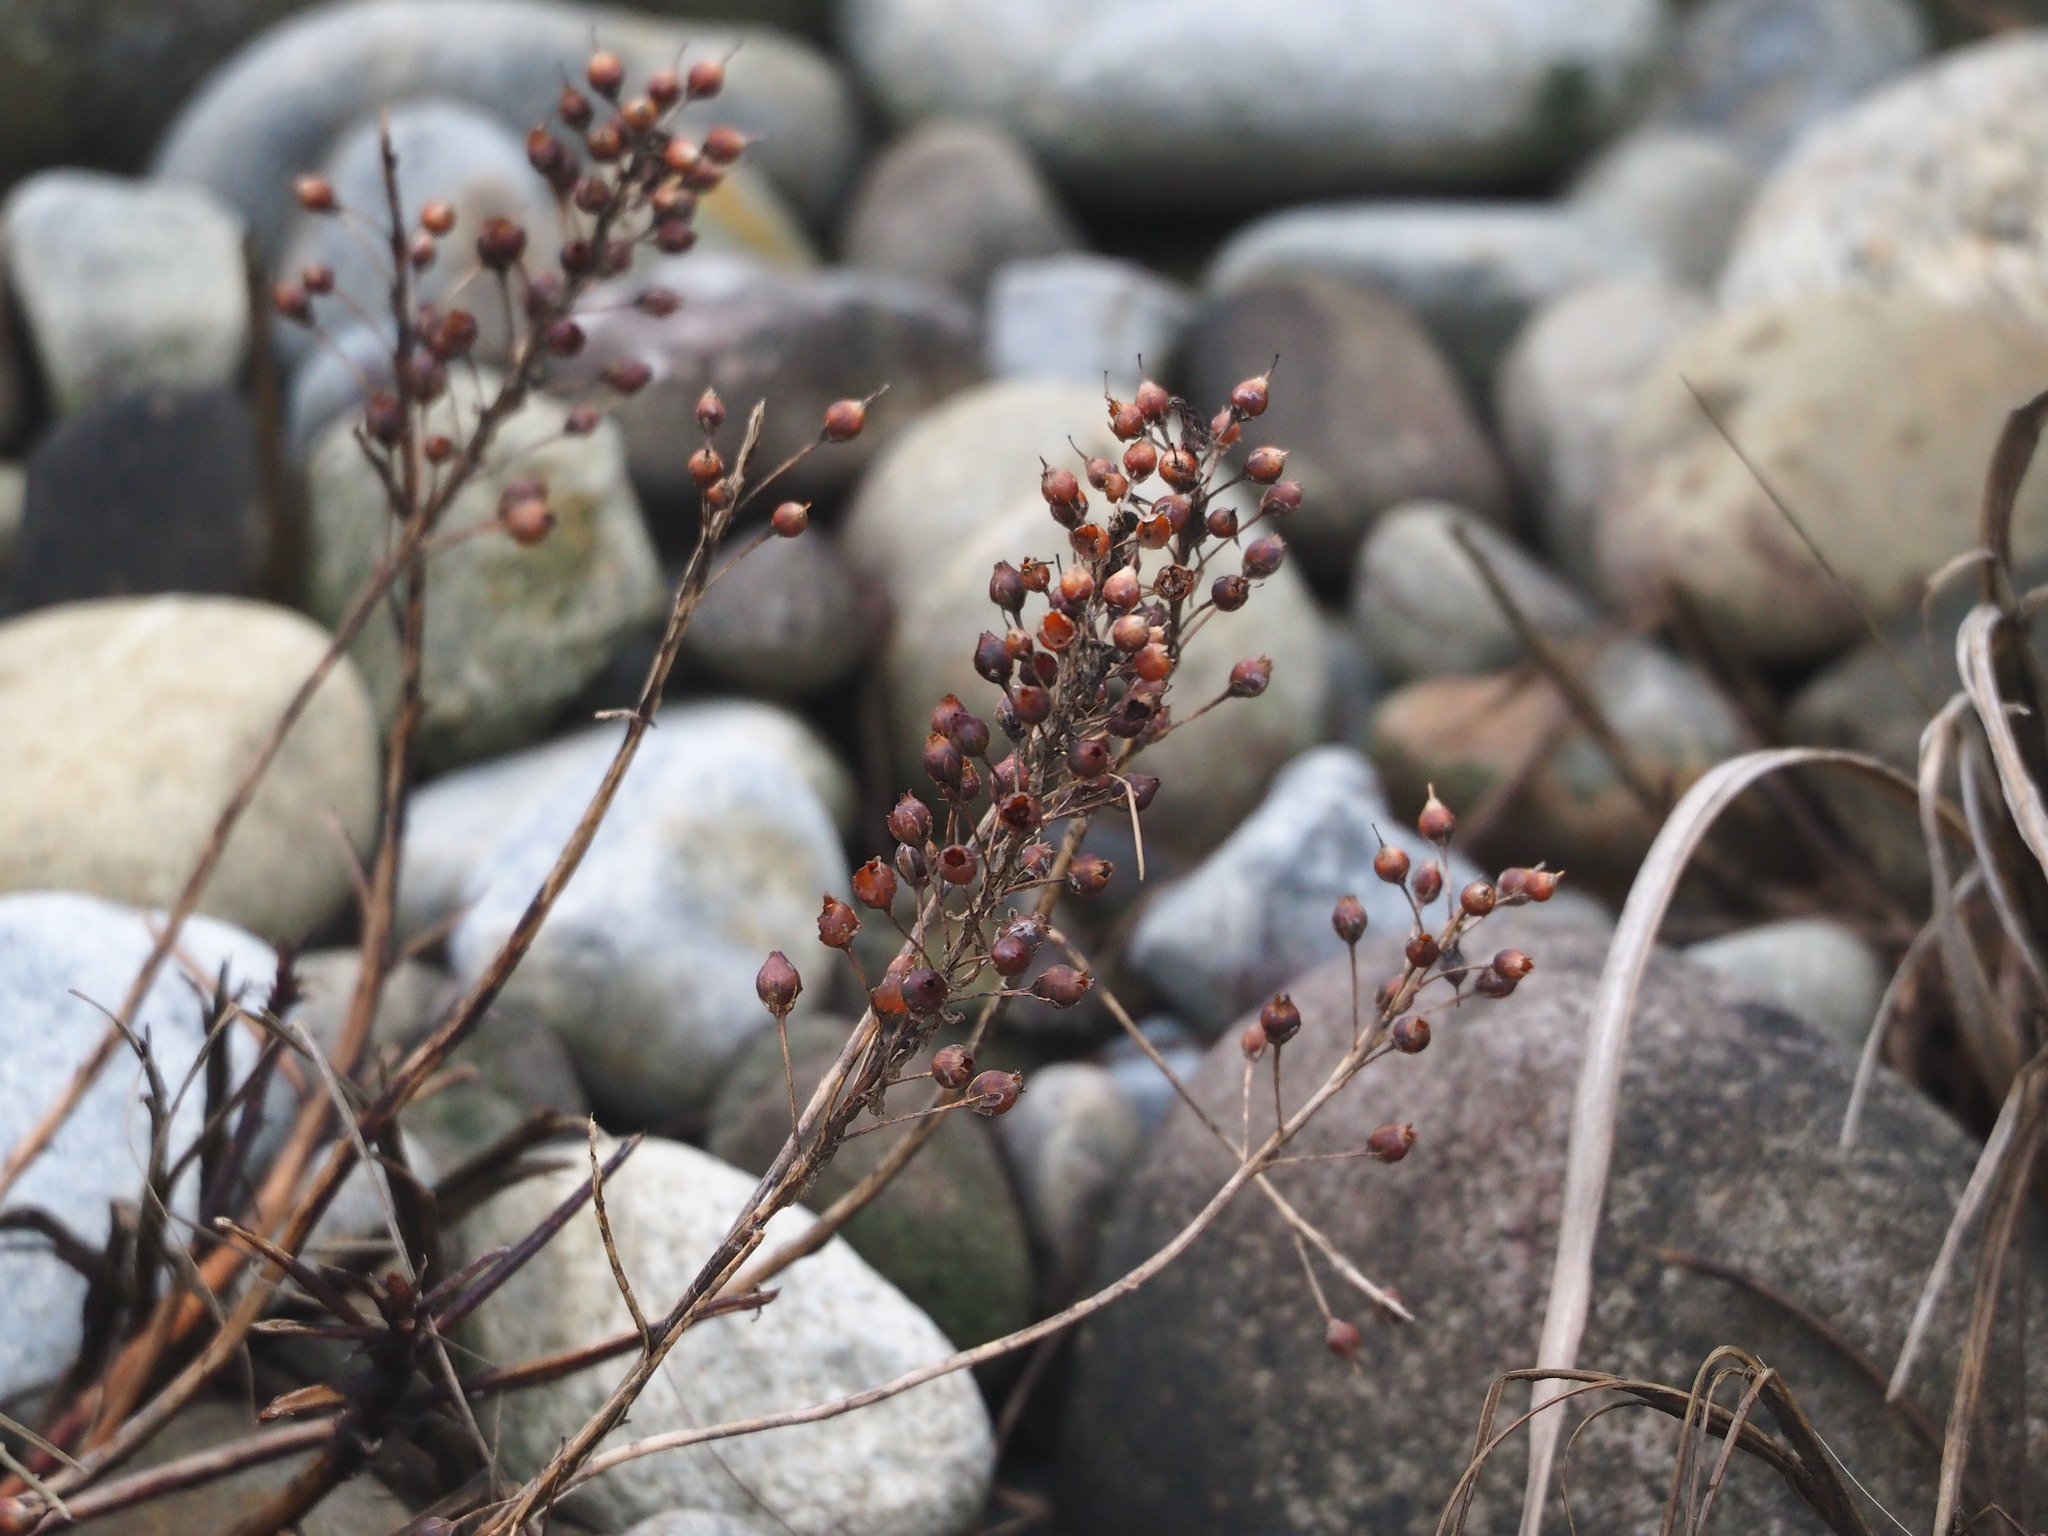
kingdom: Plantae
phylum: Tracheophyta
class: Magnoliopsida
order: Ericales
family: Primulaceae
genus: Lysimachia
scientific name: Lysimachia mauritiana
